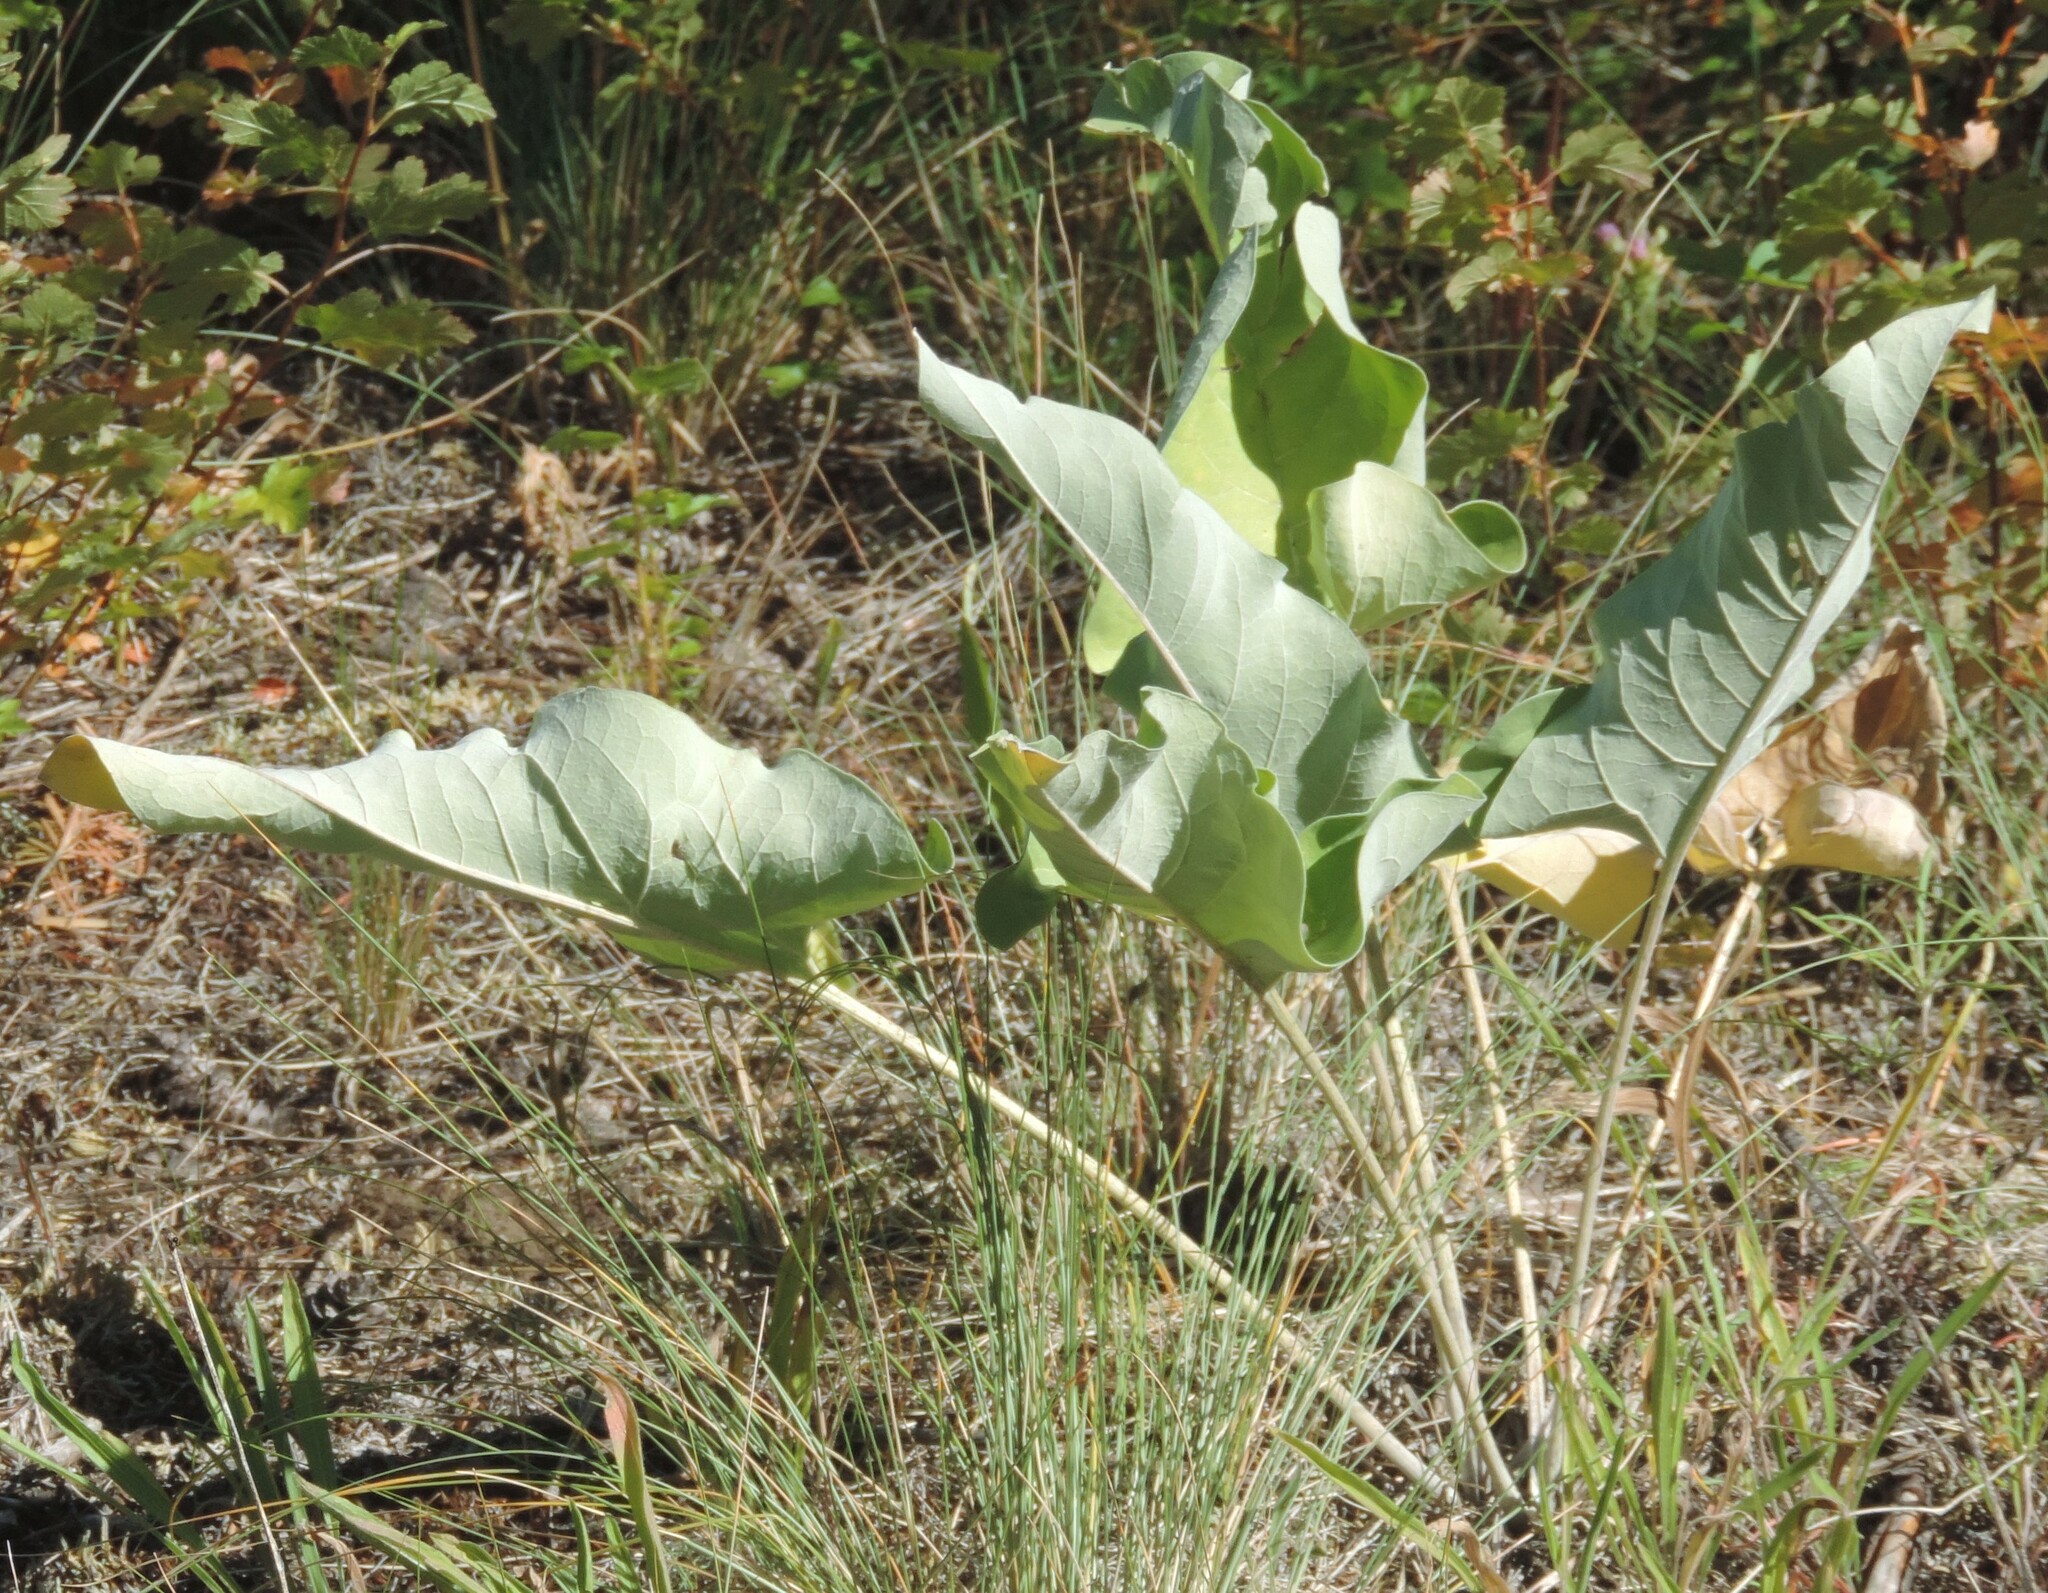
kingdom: Plantae
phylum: Tracheophyta
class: Magnoliopsida
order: Asterales
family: Asteraceae
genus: Wyethia
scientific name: Wyethia sagittata
